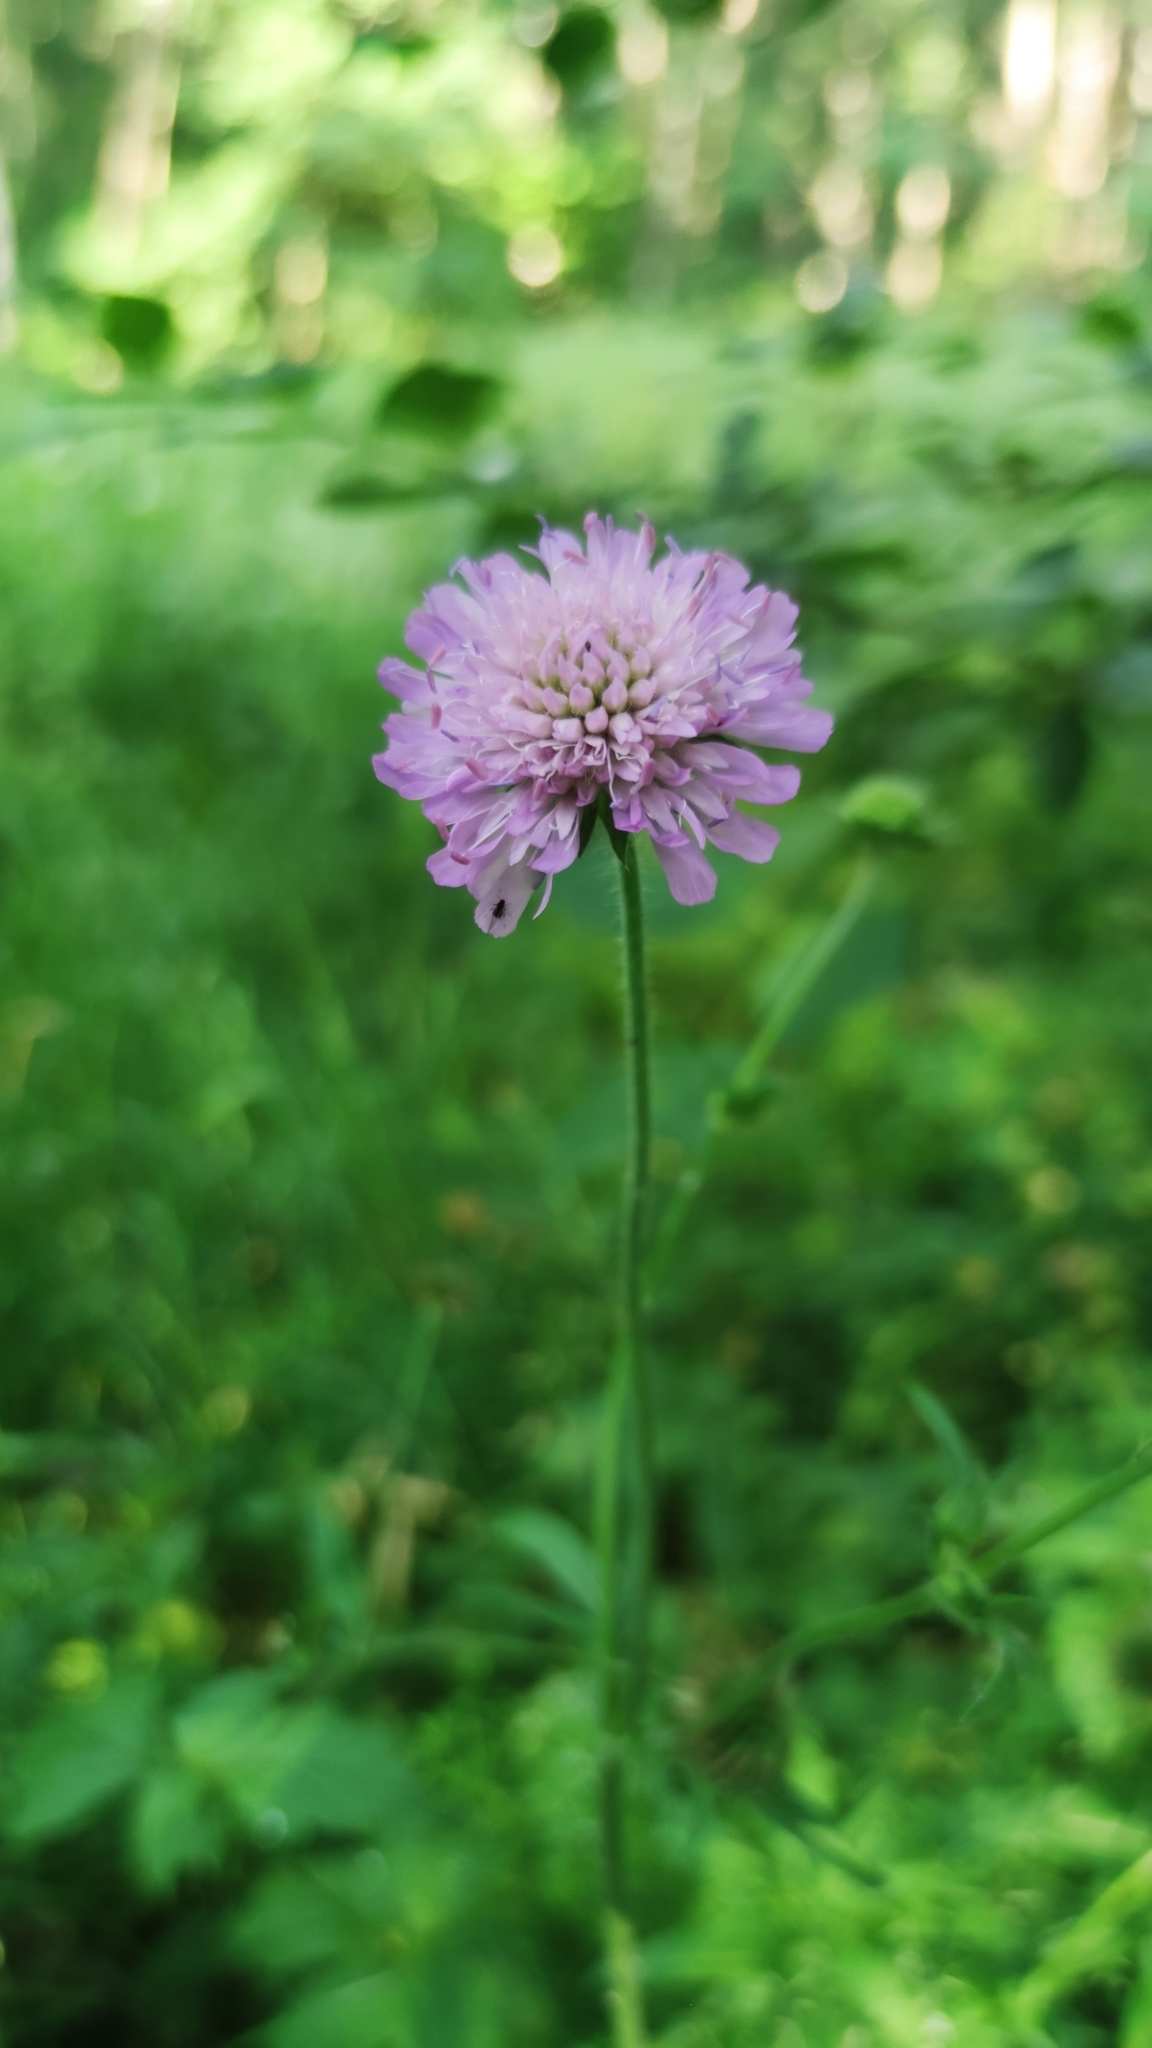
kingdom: Plantae
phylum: Tracheophyta
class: Magnoliopsida
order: Dipsacales
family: Caprifoliaceae
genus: Knautia
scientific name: Knautia arvensis
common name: Field scabiosa
